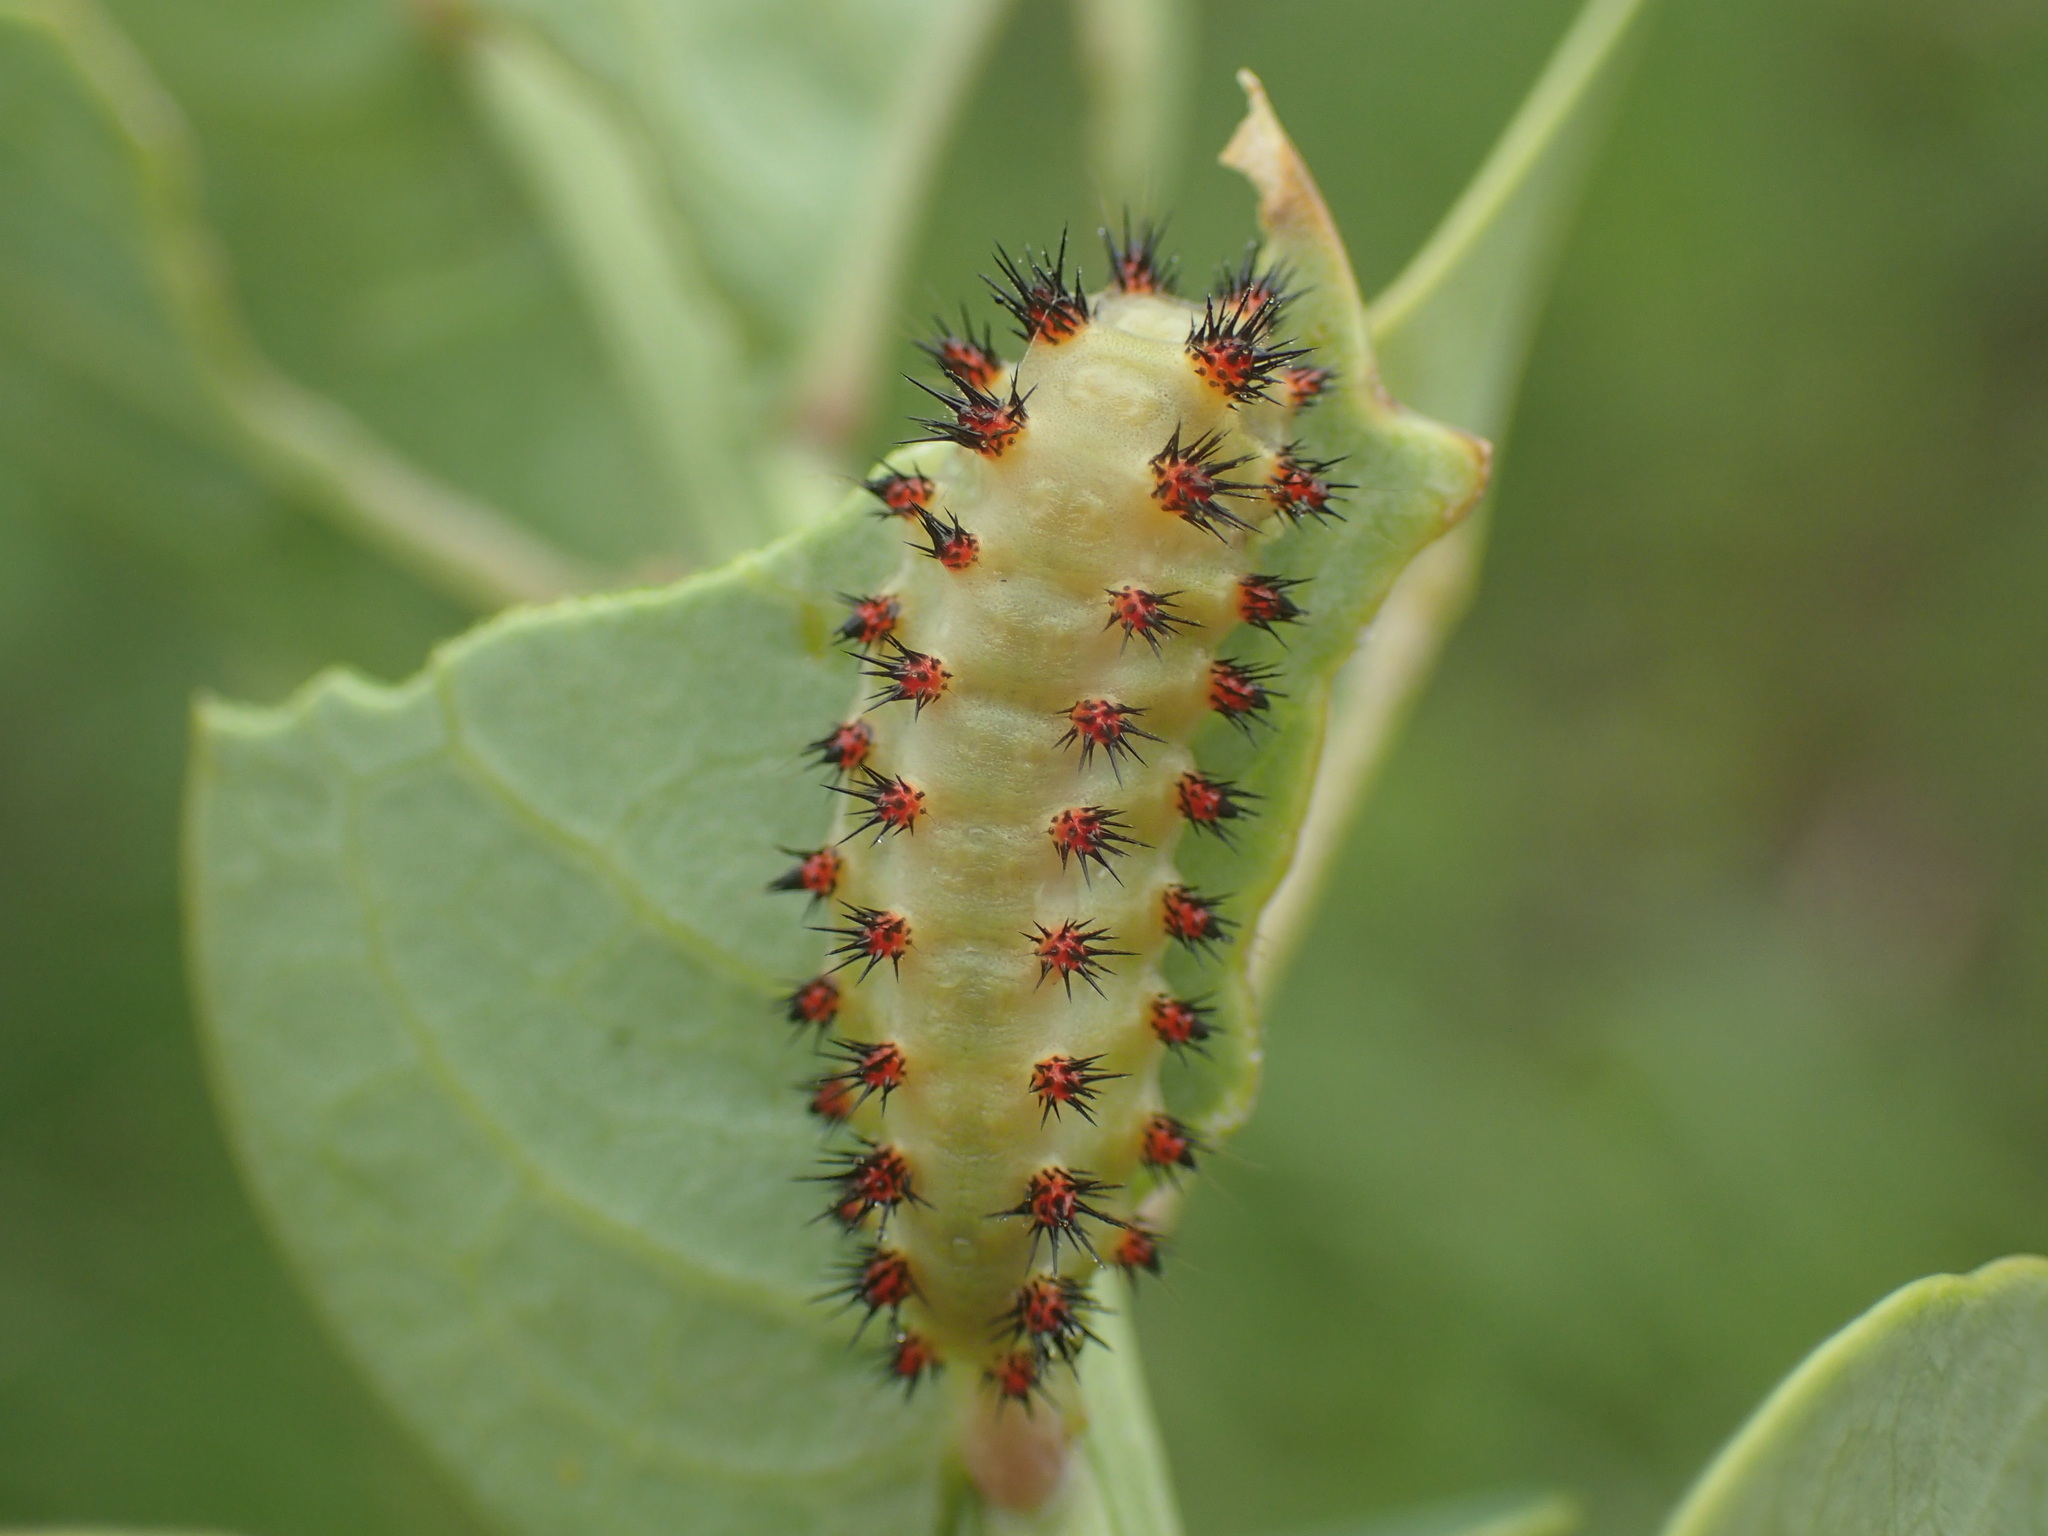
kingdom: Animalia
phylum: Arthropoda
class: Insecta
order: Lepidoptera
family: Limacodidae
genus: Sporetolepis
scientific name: Sporetolepis platti
